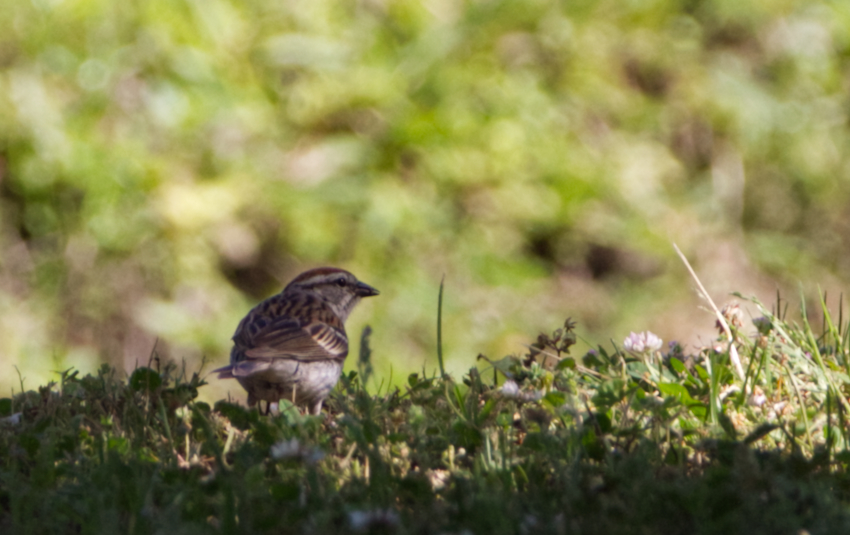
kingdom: Animalia
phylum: Chordata
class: Aves
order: Passeriformes
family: Passerellidae
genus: Spizella
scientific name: Spizella passerina
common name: Chipping sparrow
